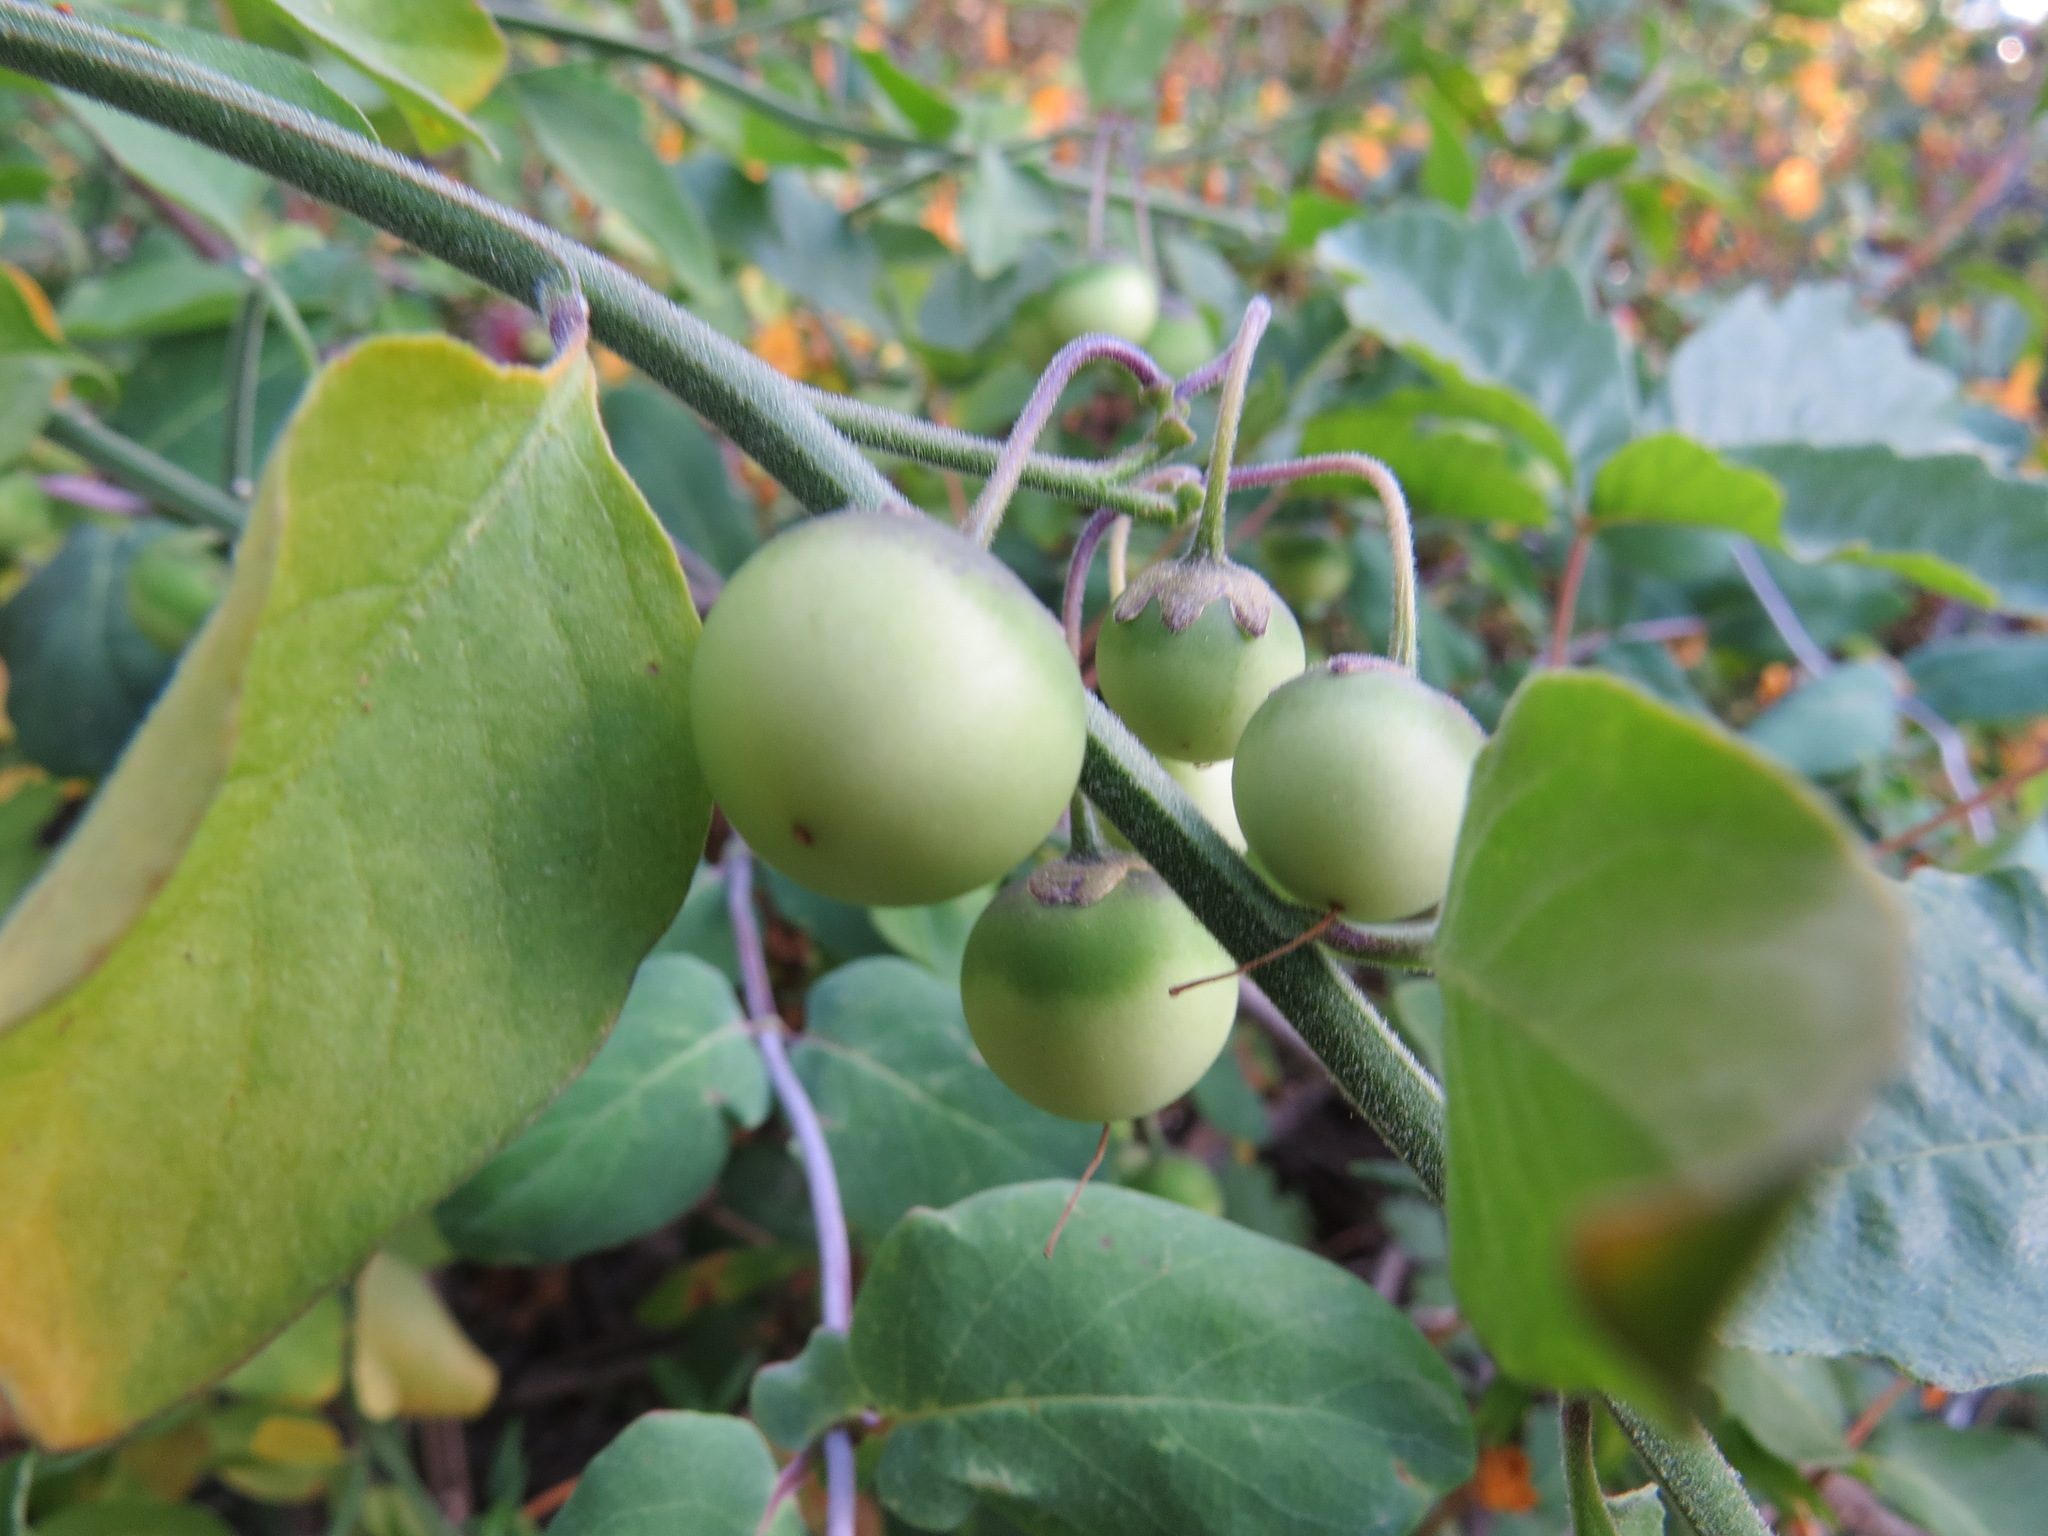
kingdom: Plantae
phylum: Tracheophyta
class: Magnoliopsida
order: Solanales
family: Solanaceae
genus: Solanum
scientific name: Solanum umbelliferum
